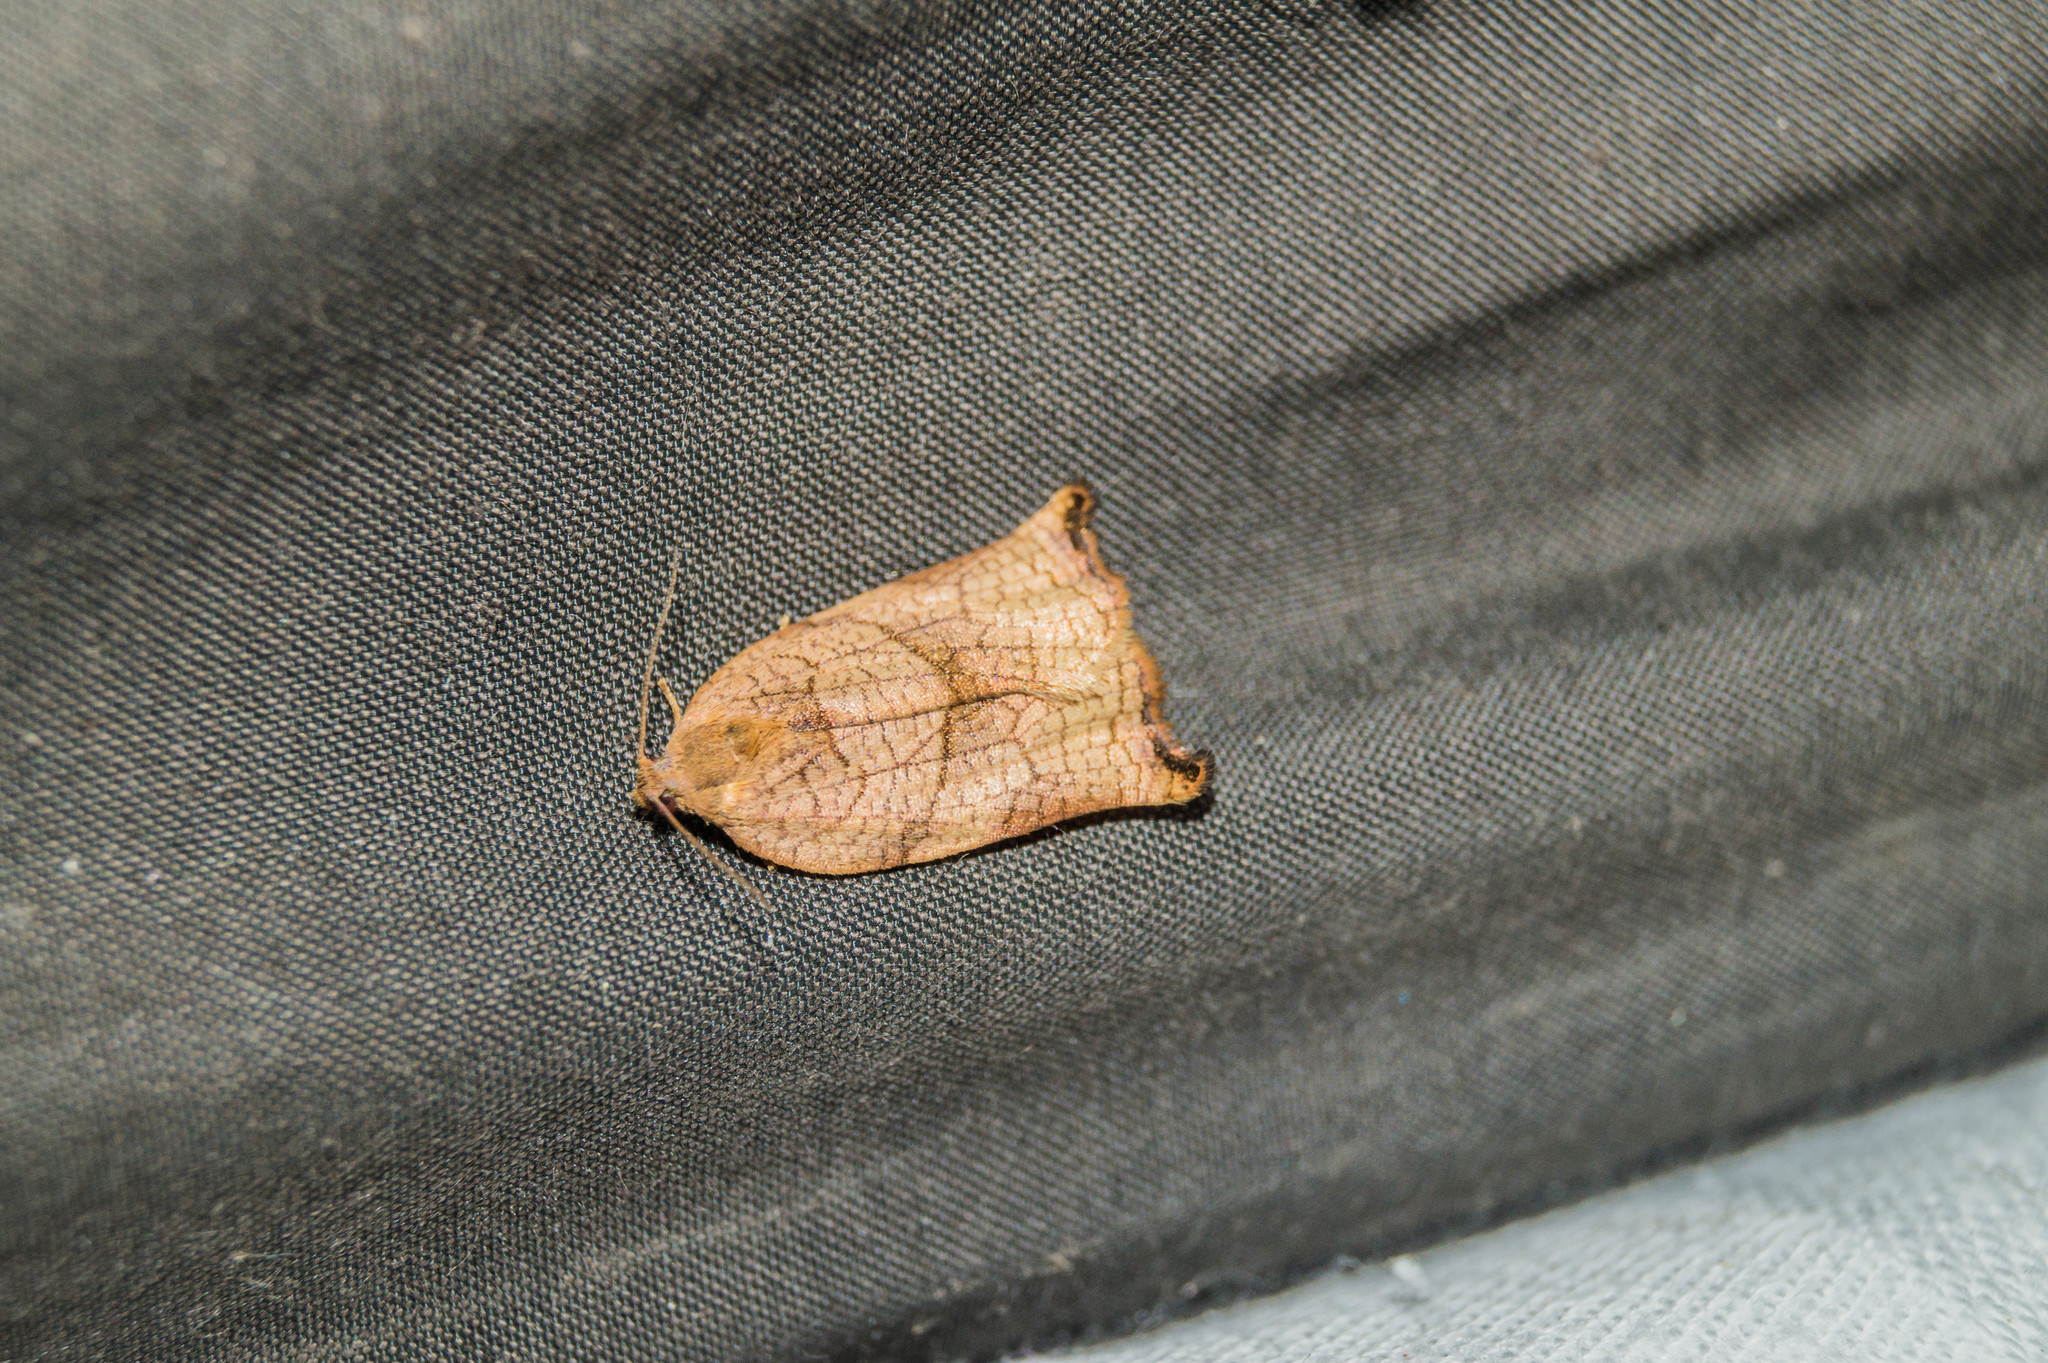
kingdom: Animalia
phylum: Arthropoda
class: Insecta
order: Lepidoptera
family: Tortricidae
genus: Archips
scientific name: Archips podana
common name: Large fruit-tree tortrix
